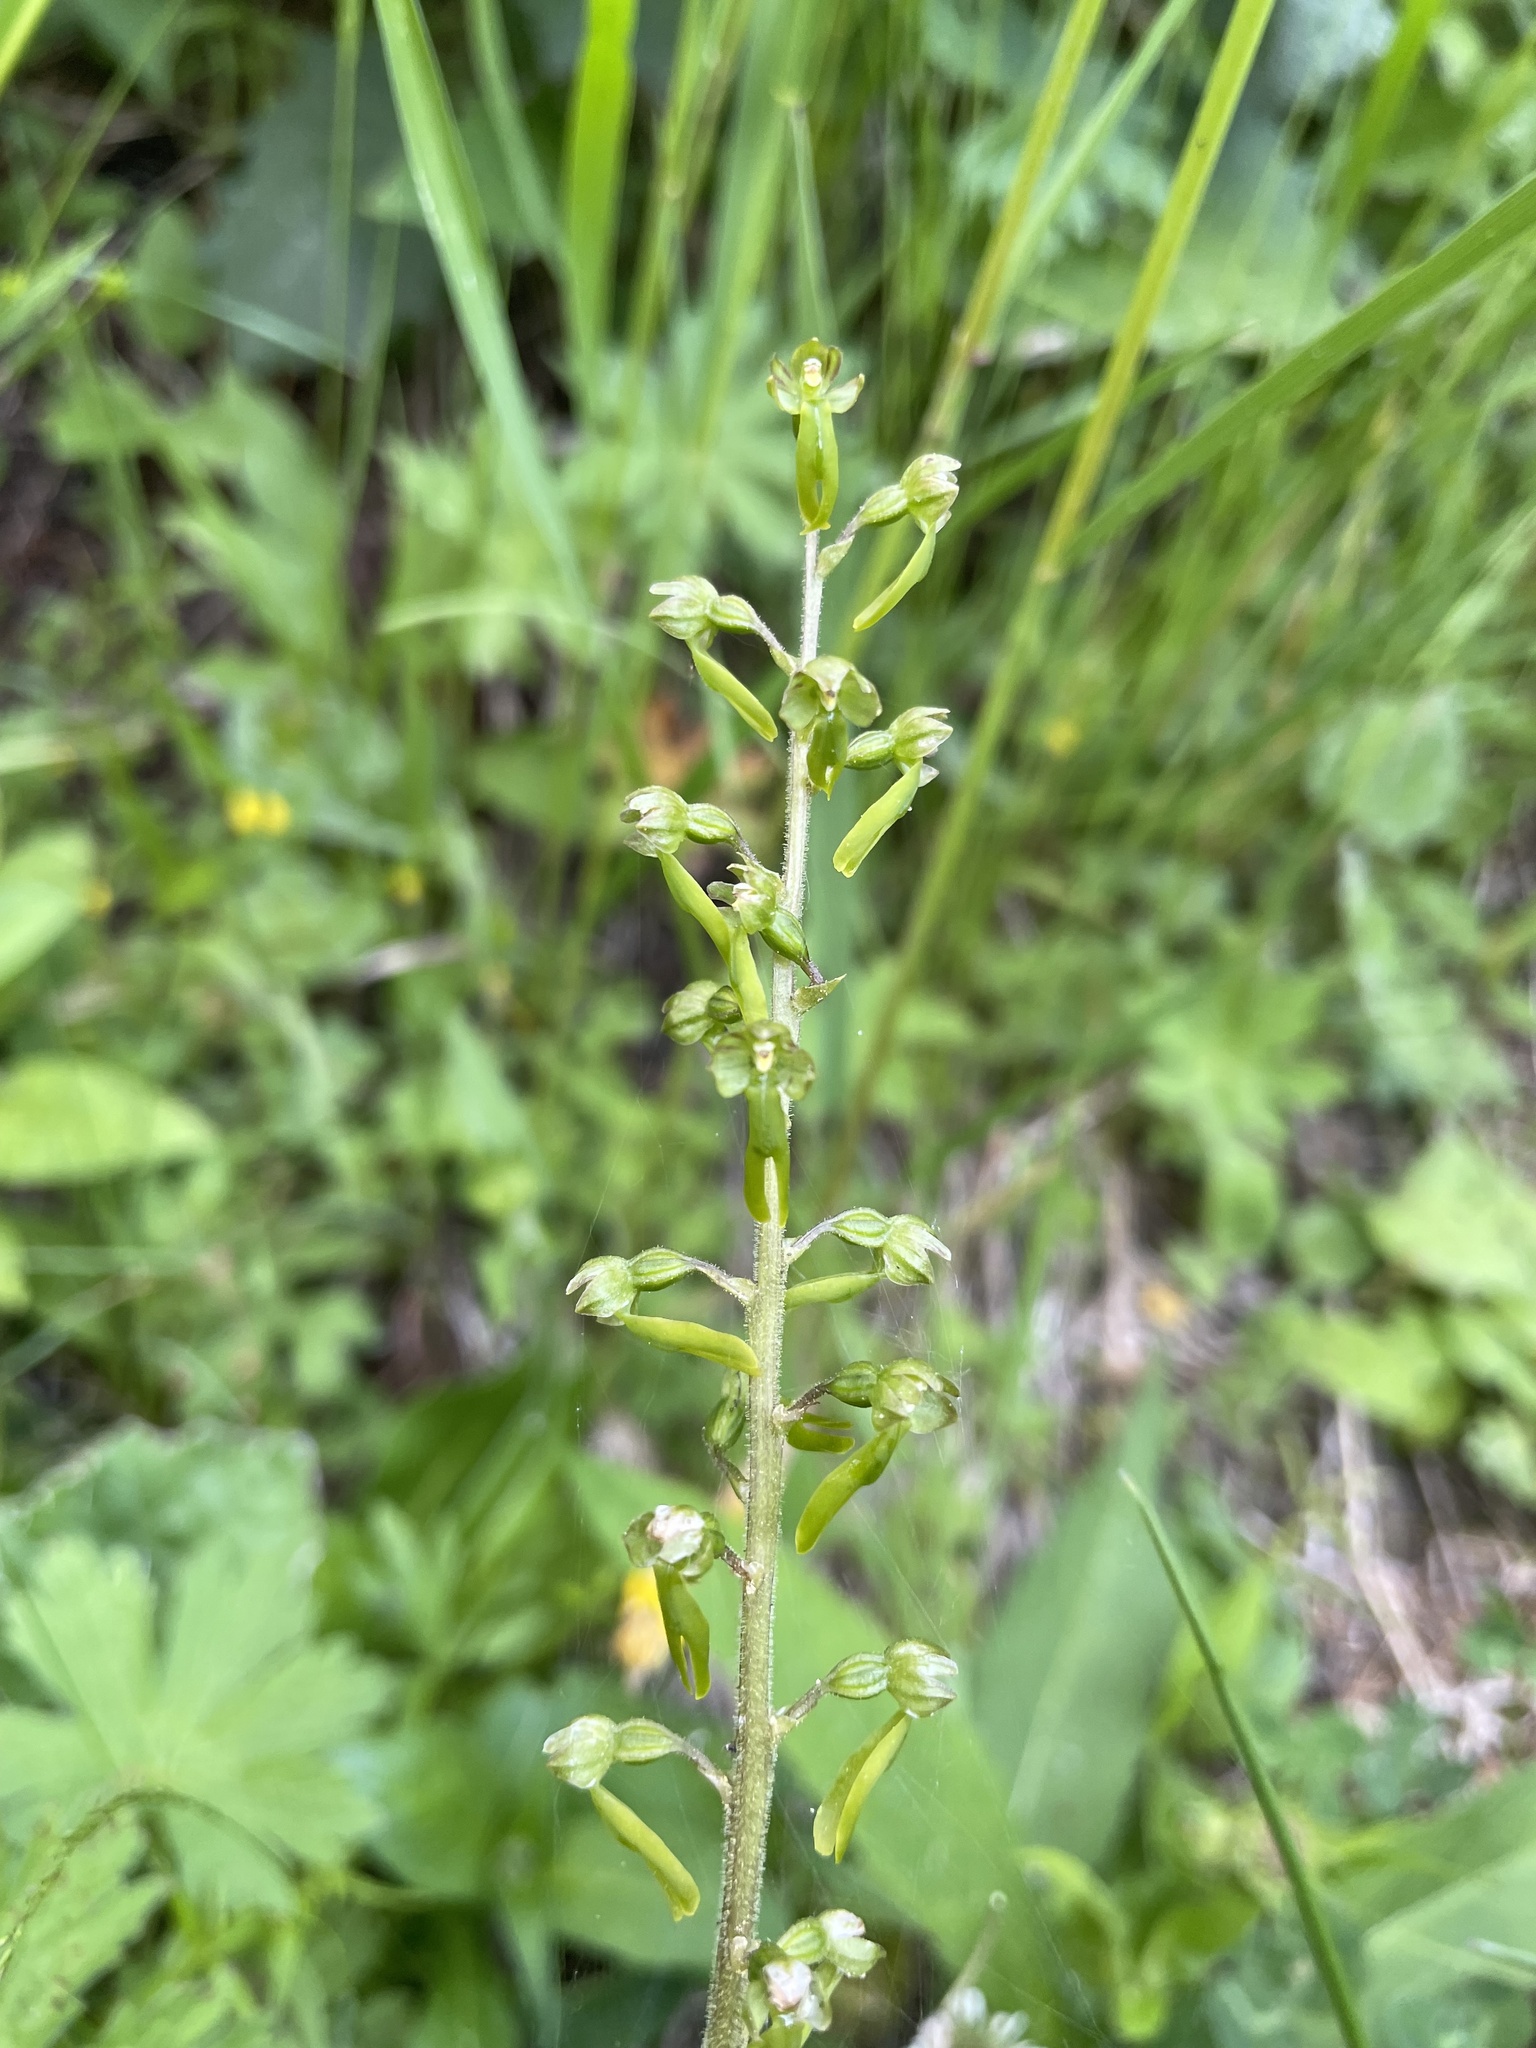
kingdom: Plantae
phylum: Tracheophyta
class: Liliopsida
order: Asparagales
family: Orchidaceae
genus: Neottia
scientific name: Neottia ovata
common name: Common twayblade
